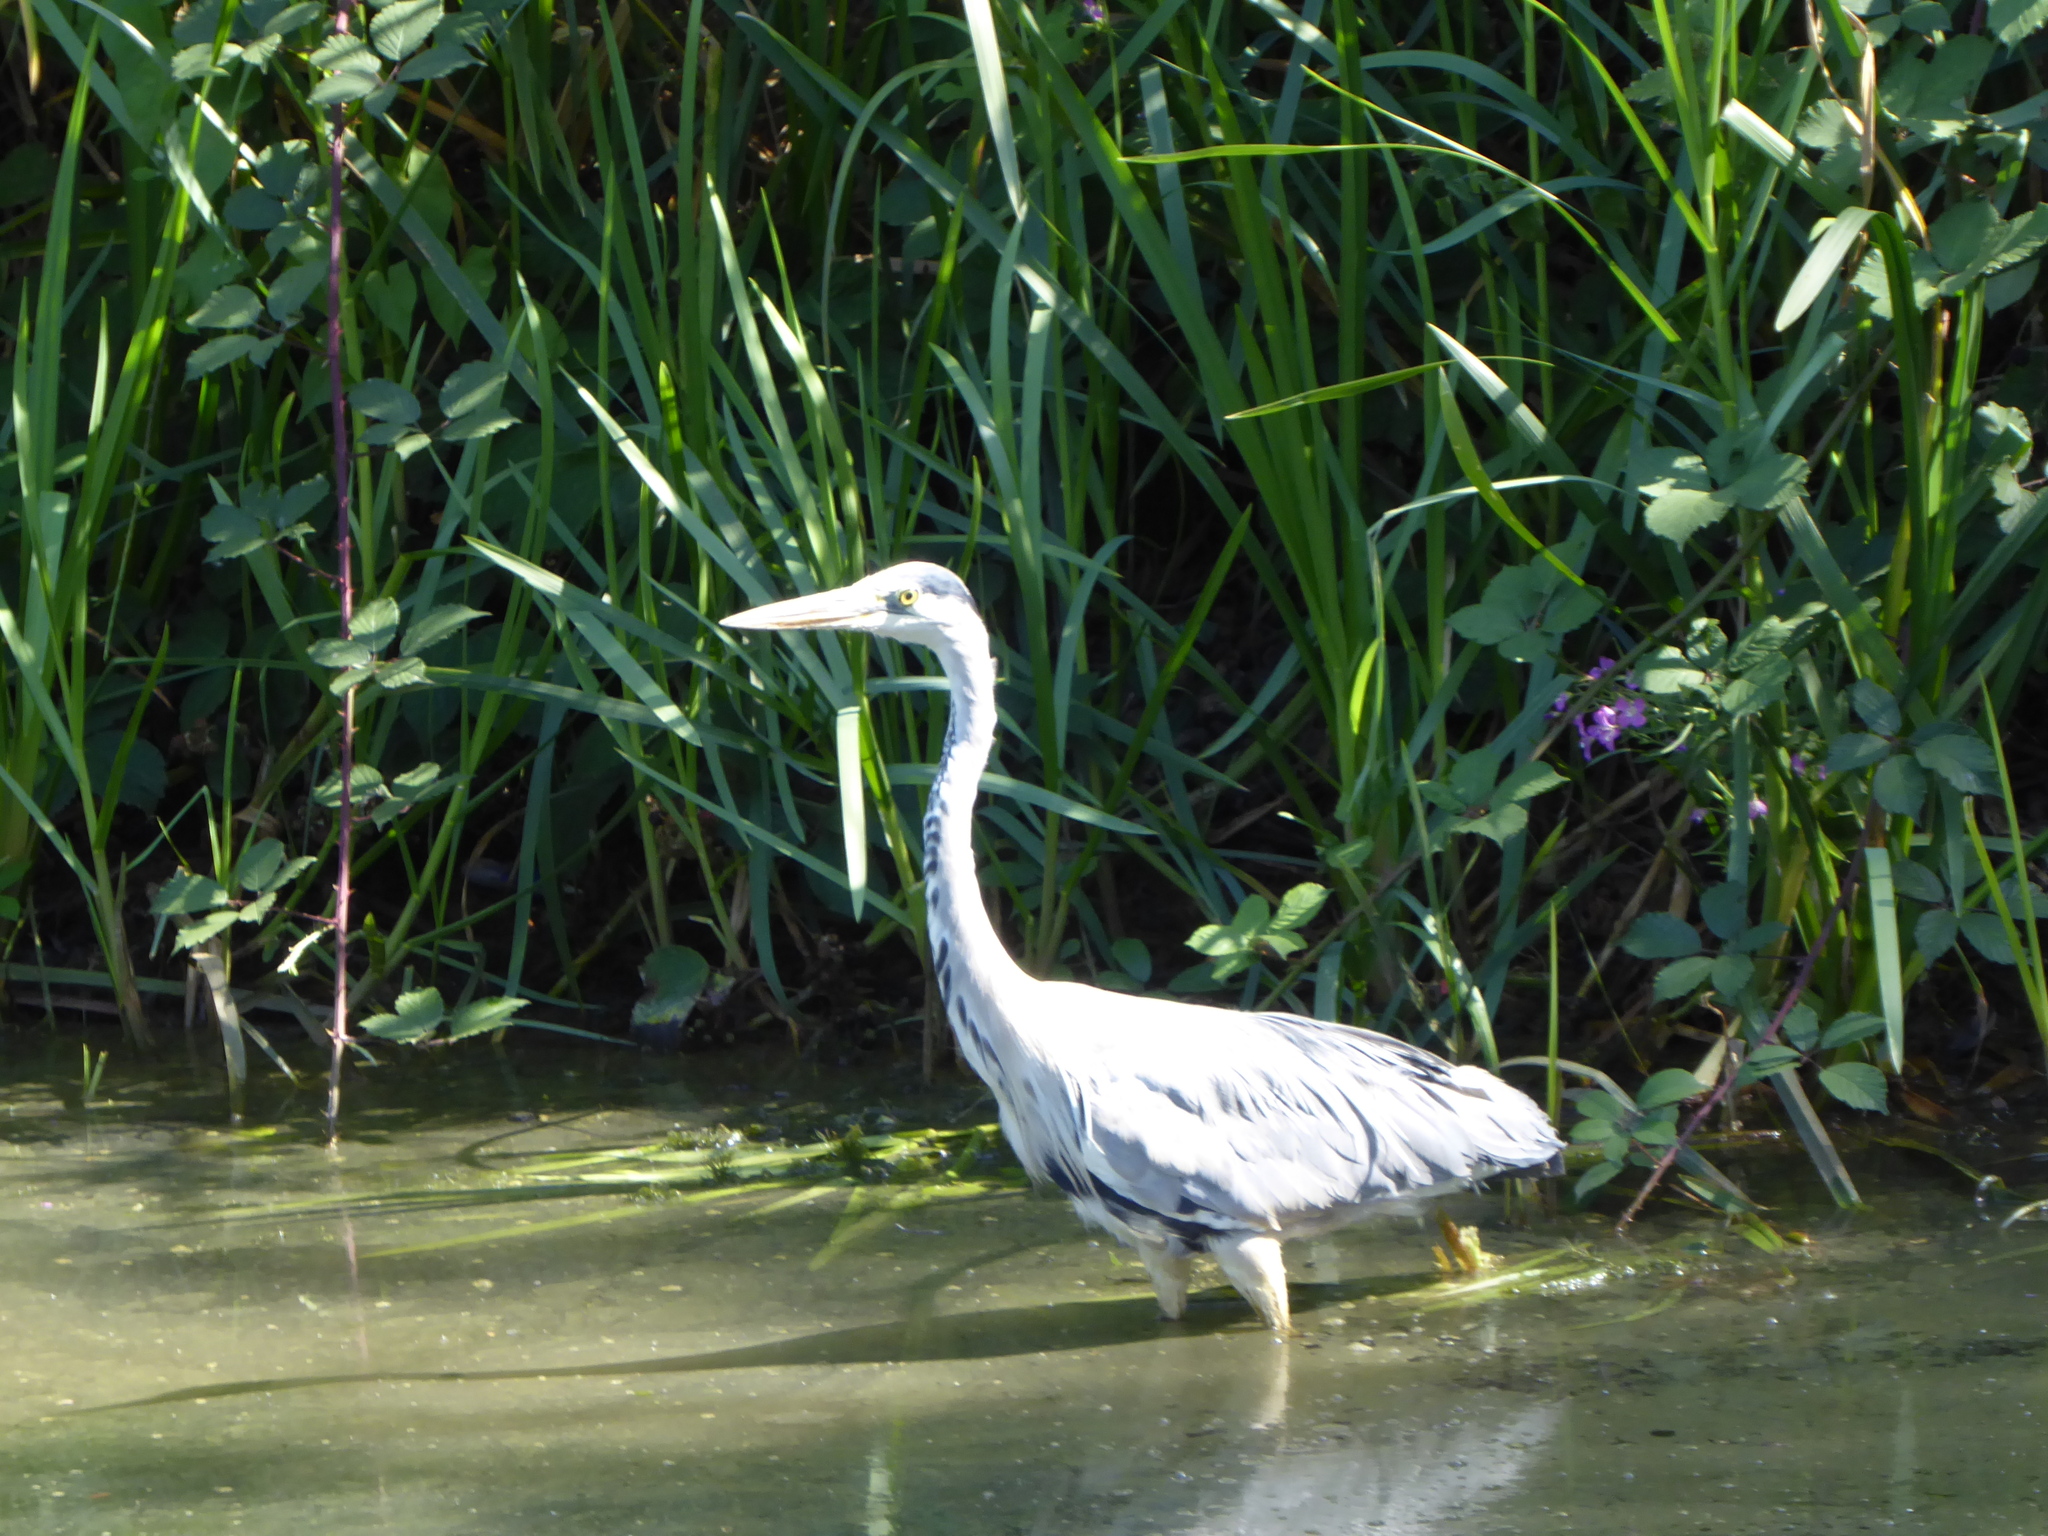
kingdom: Animalia
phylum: Chordata
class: Aves
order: Pelecaniformes
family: Ardeidae
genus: Ardea
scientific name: Ardea cinerea
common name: Grey heron
